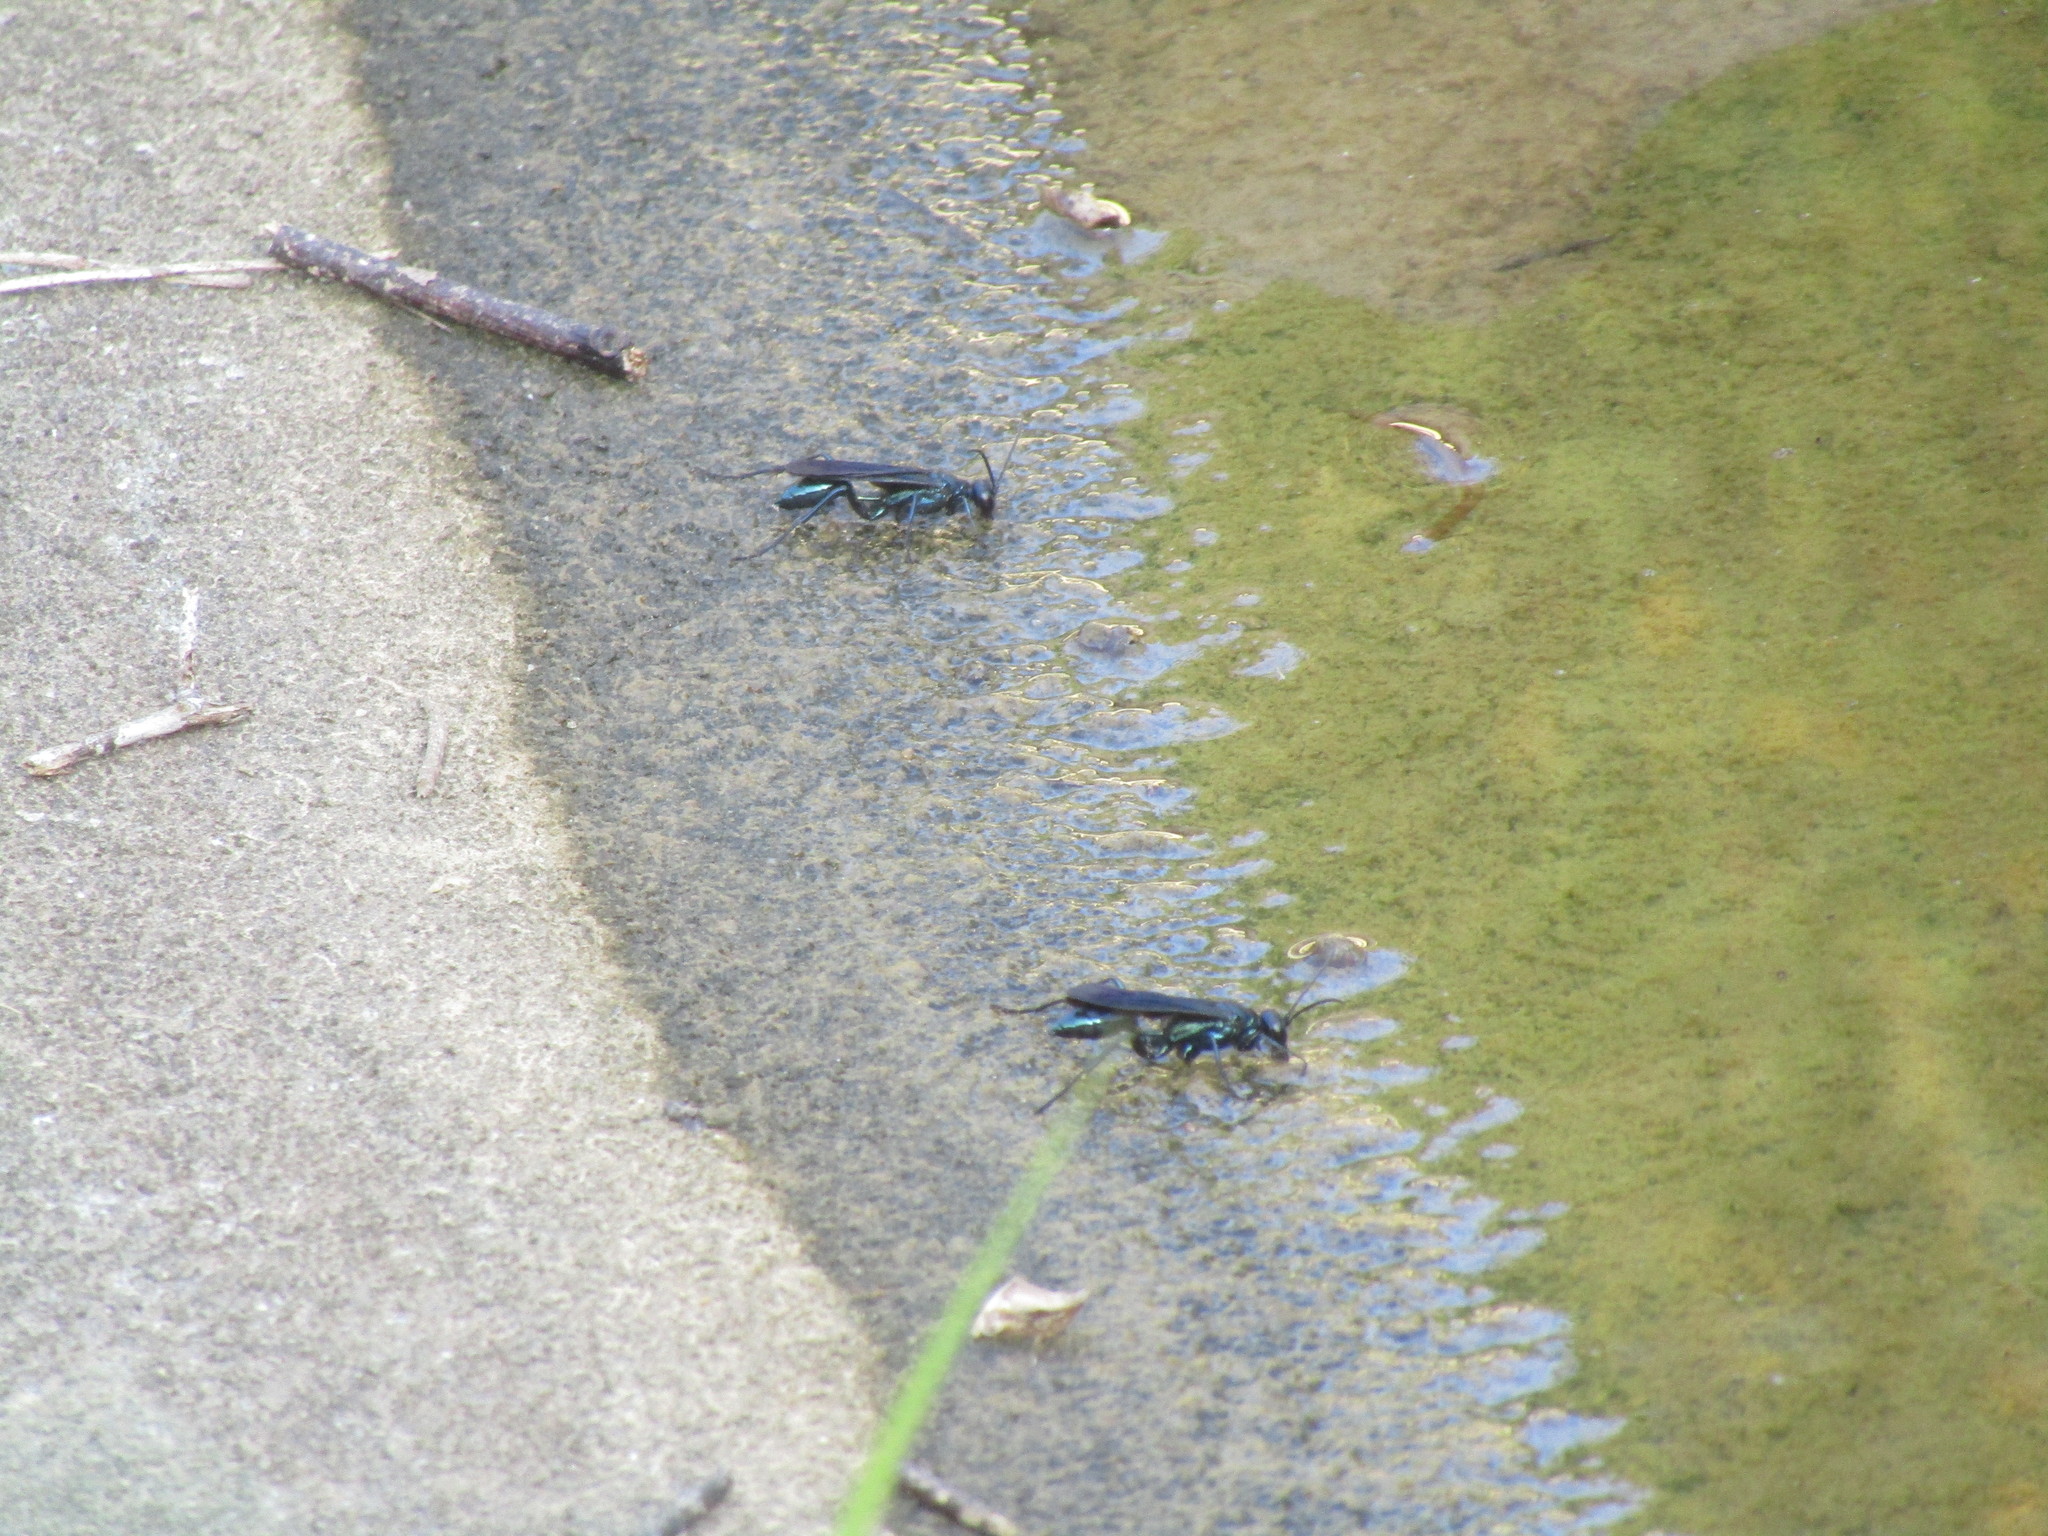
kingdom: Animalia
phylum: Arthropoda
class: Insecta
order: Hymenoptera
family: Sphecidae
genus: Chalybion
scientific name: Chalybion californicum
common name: Mud dauber
